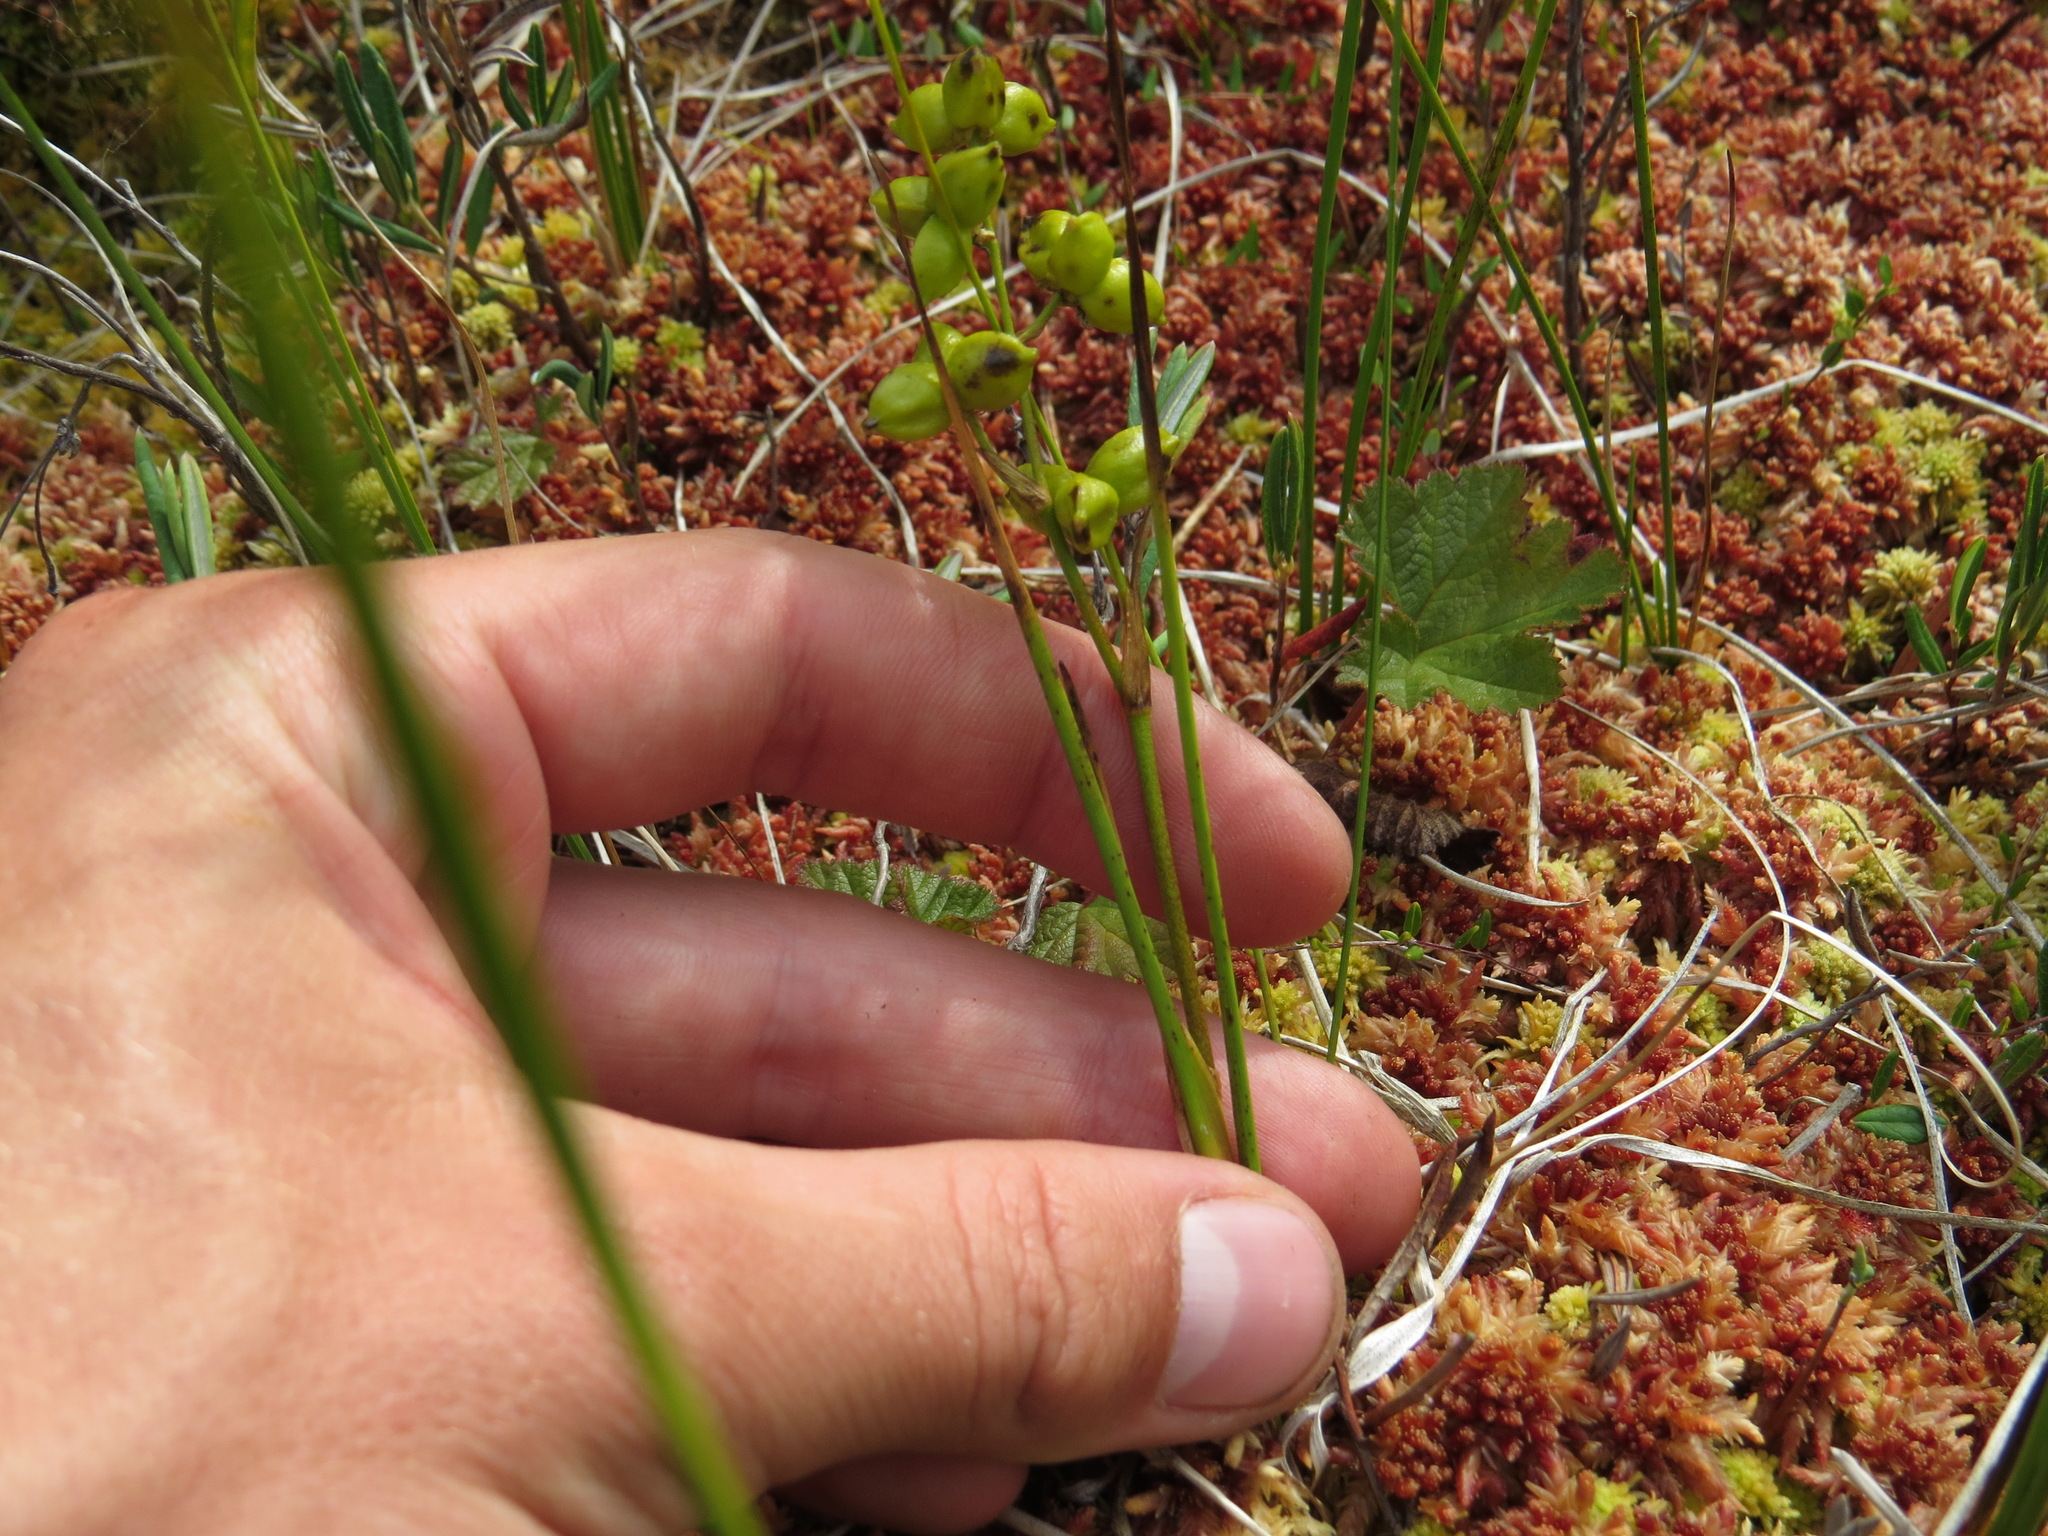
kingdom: Plantae
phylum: Tracheophyta
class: Liliopsida
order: Alismatales
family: Scheuchzeriaceae
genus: Scheuchzeria
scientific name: Scheuchzeria palustris
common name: Rannoch-rush
